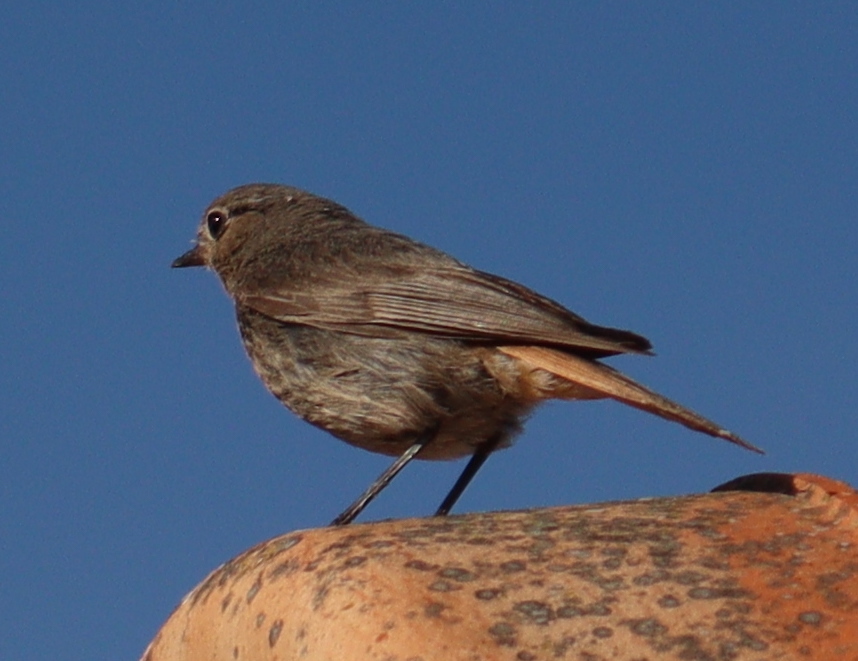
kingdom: Animalia
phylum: Chordata
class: Aves
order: Passeriformes
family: Muscicapidae
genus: Phoenicurus
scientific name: Phoenicurus ochruros
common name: Black redstart
